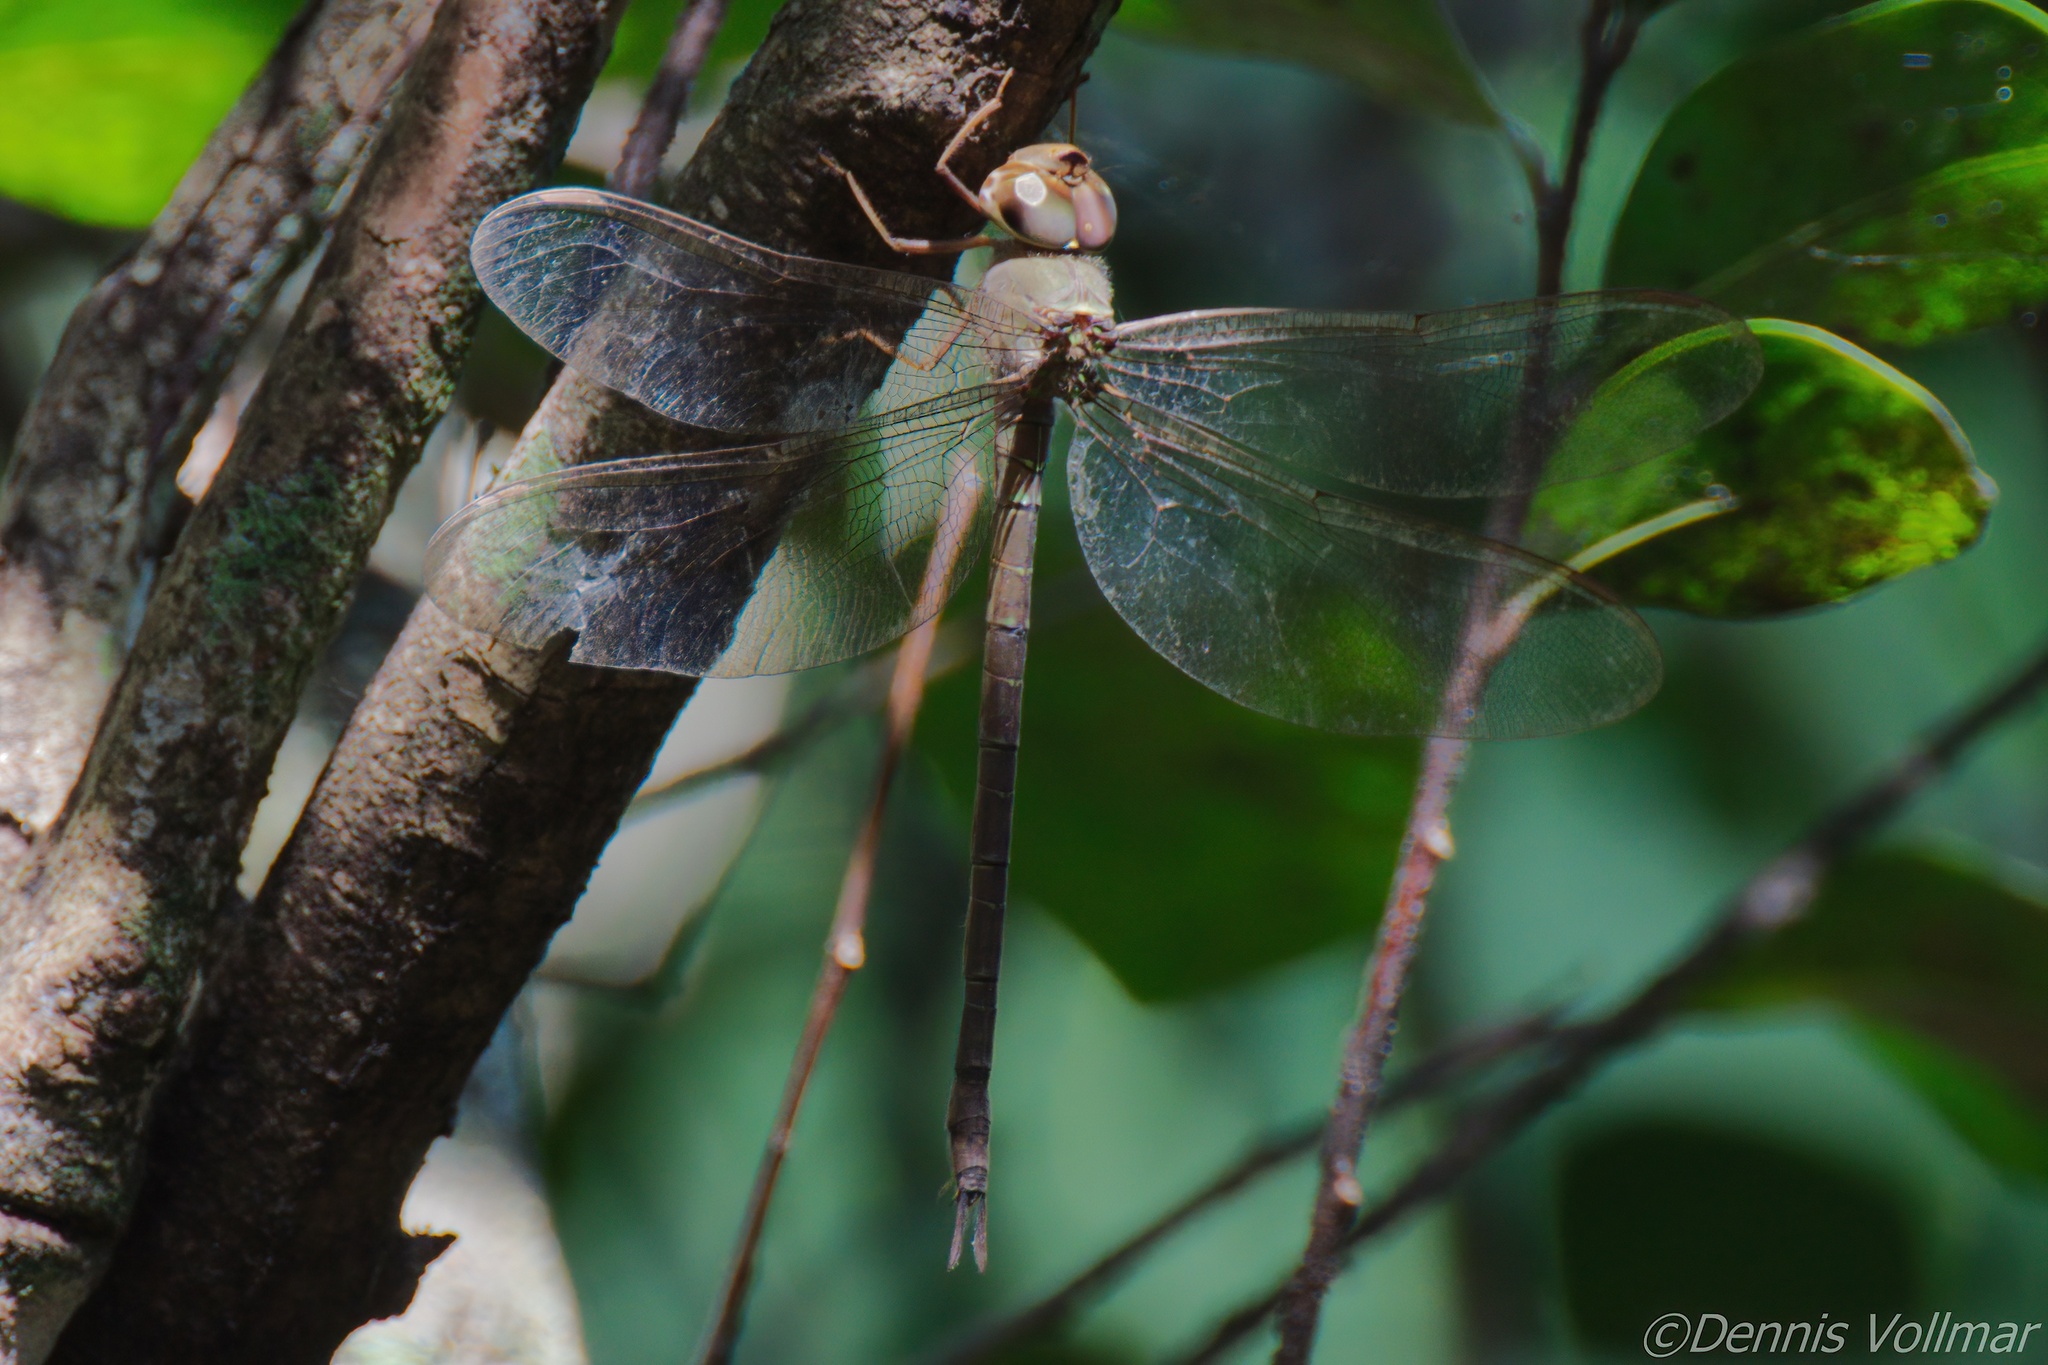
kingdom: Animalia
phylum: Arthropoda
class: Insecta
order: Odonata
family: Aeshnidae
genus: Gynacantha
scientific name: Gynacantha nervosa
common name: Twilight darner
